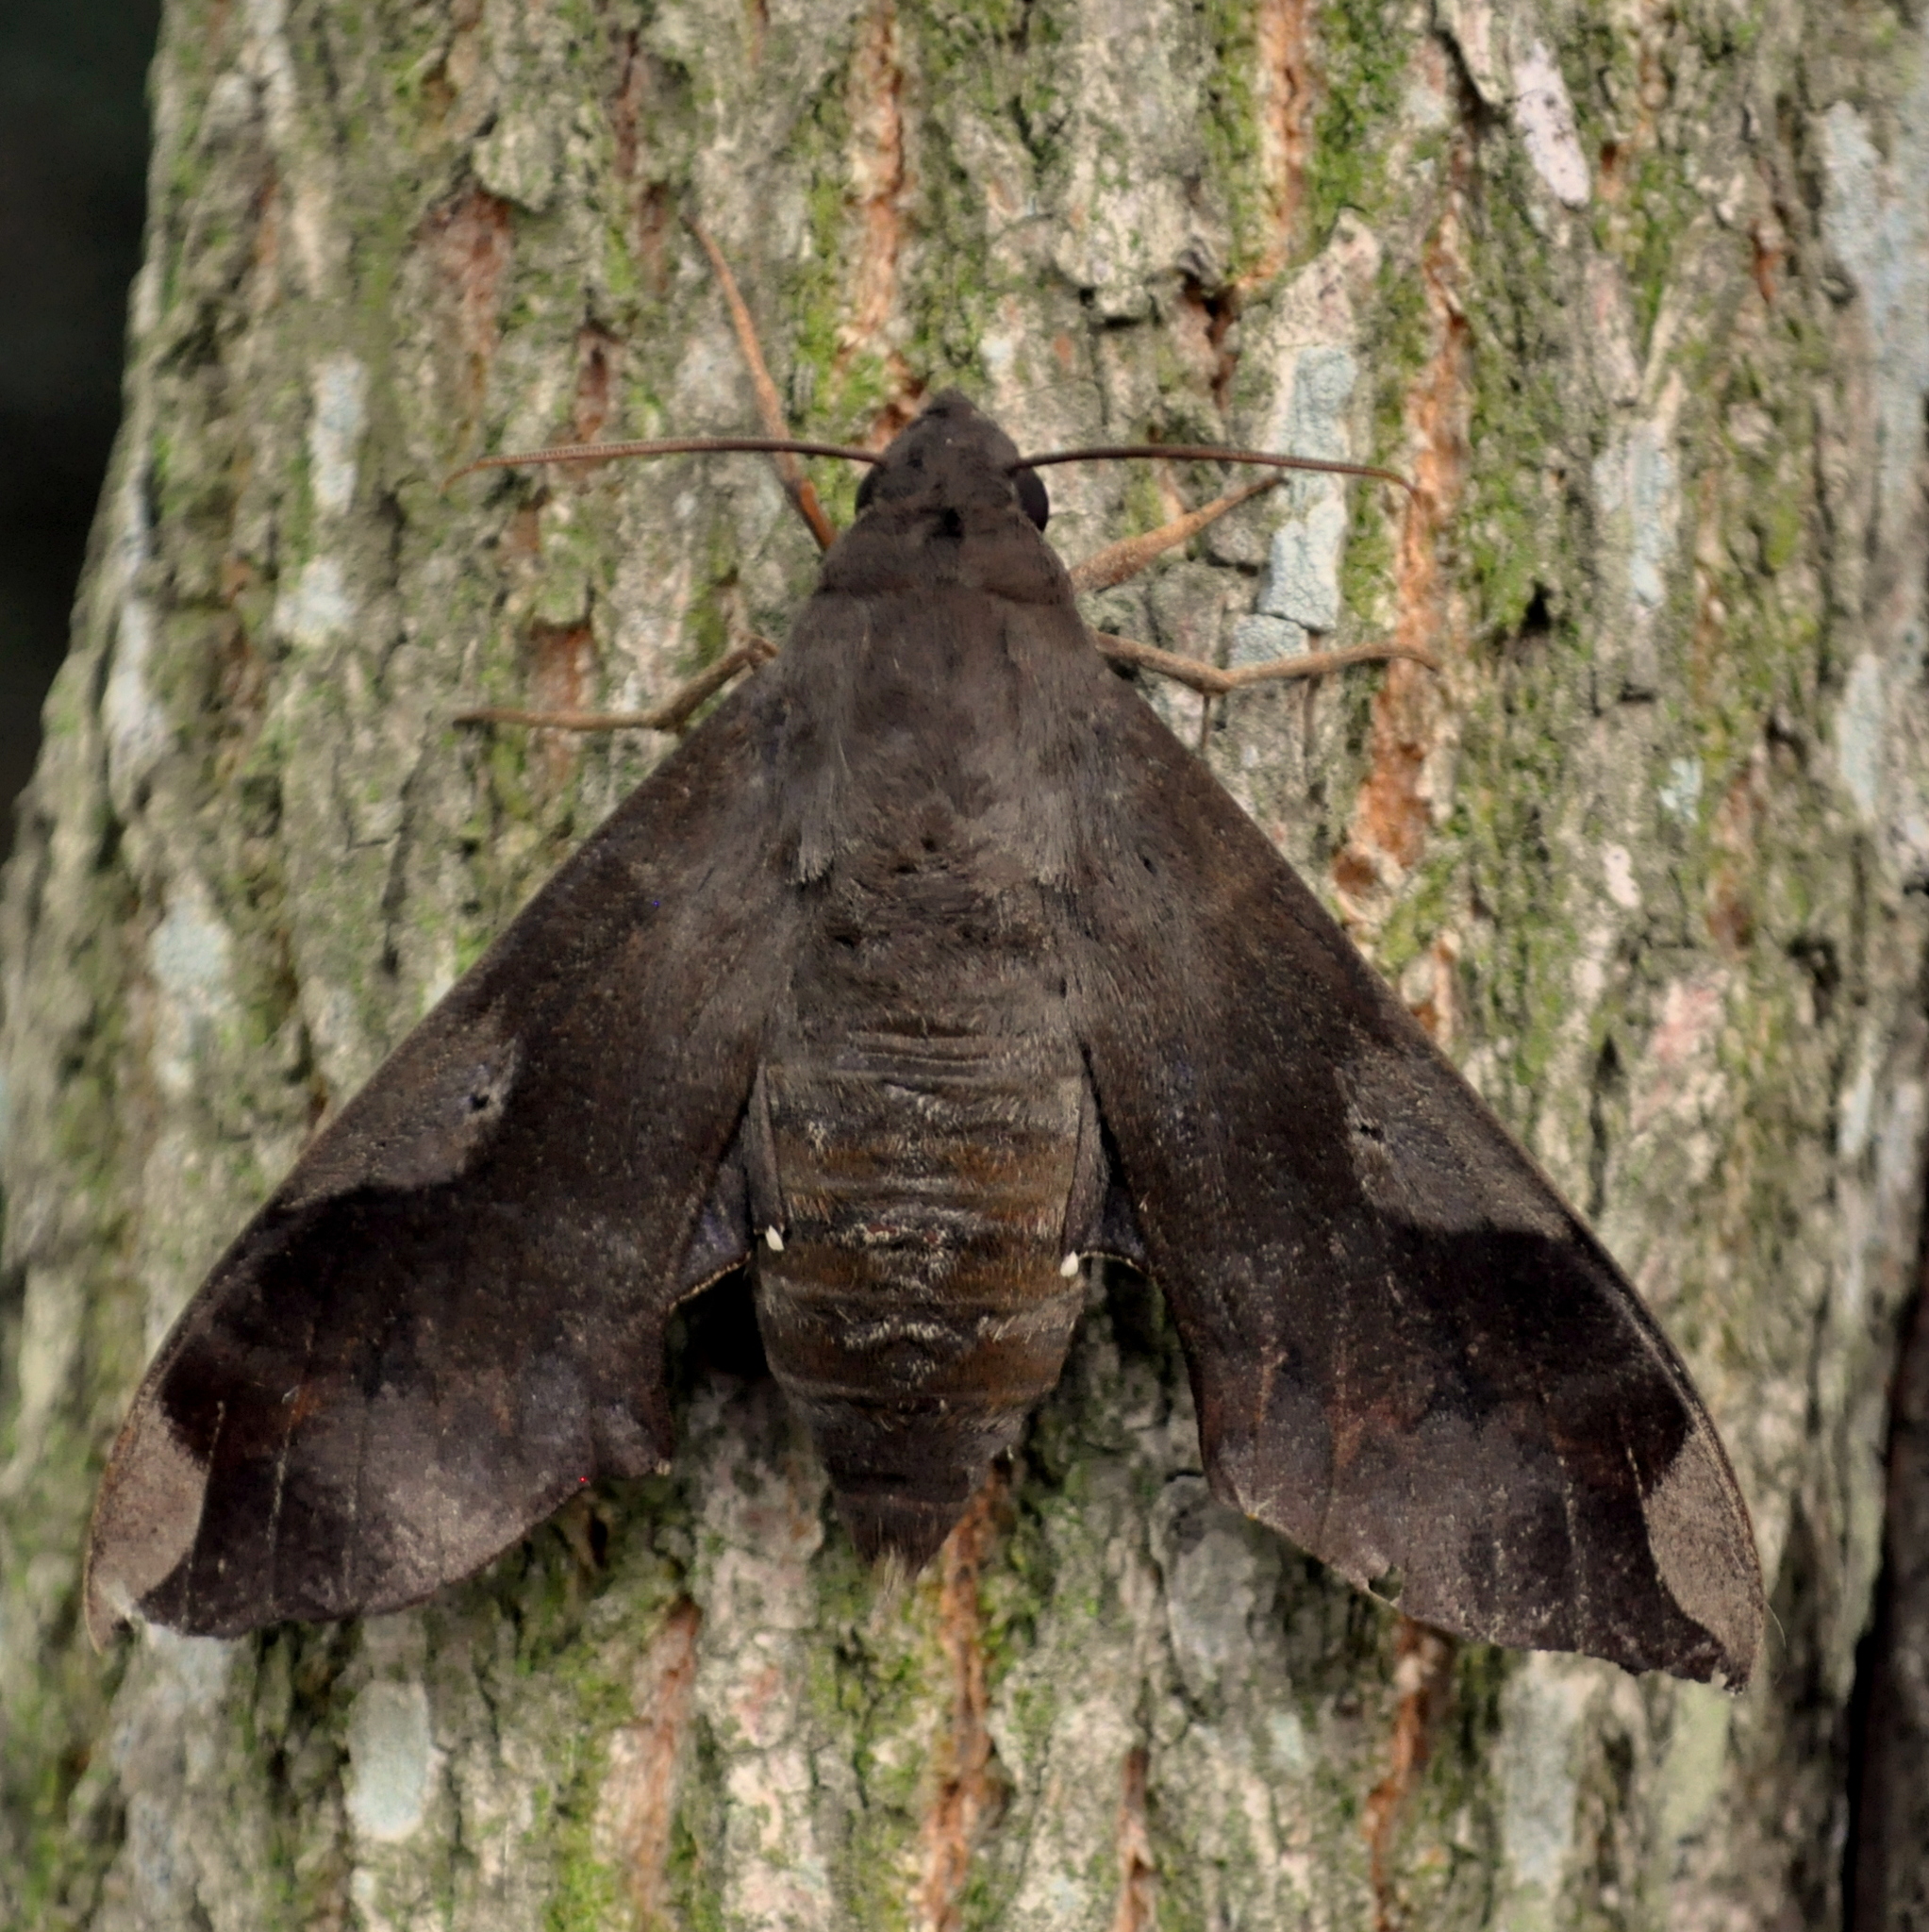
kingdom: Animalia
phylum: Arthropoda
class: Insecta
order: Lepidoptera
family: Sphingidae
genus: Pachylia
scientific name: Pachylia syces
